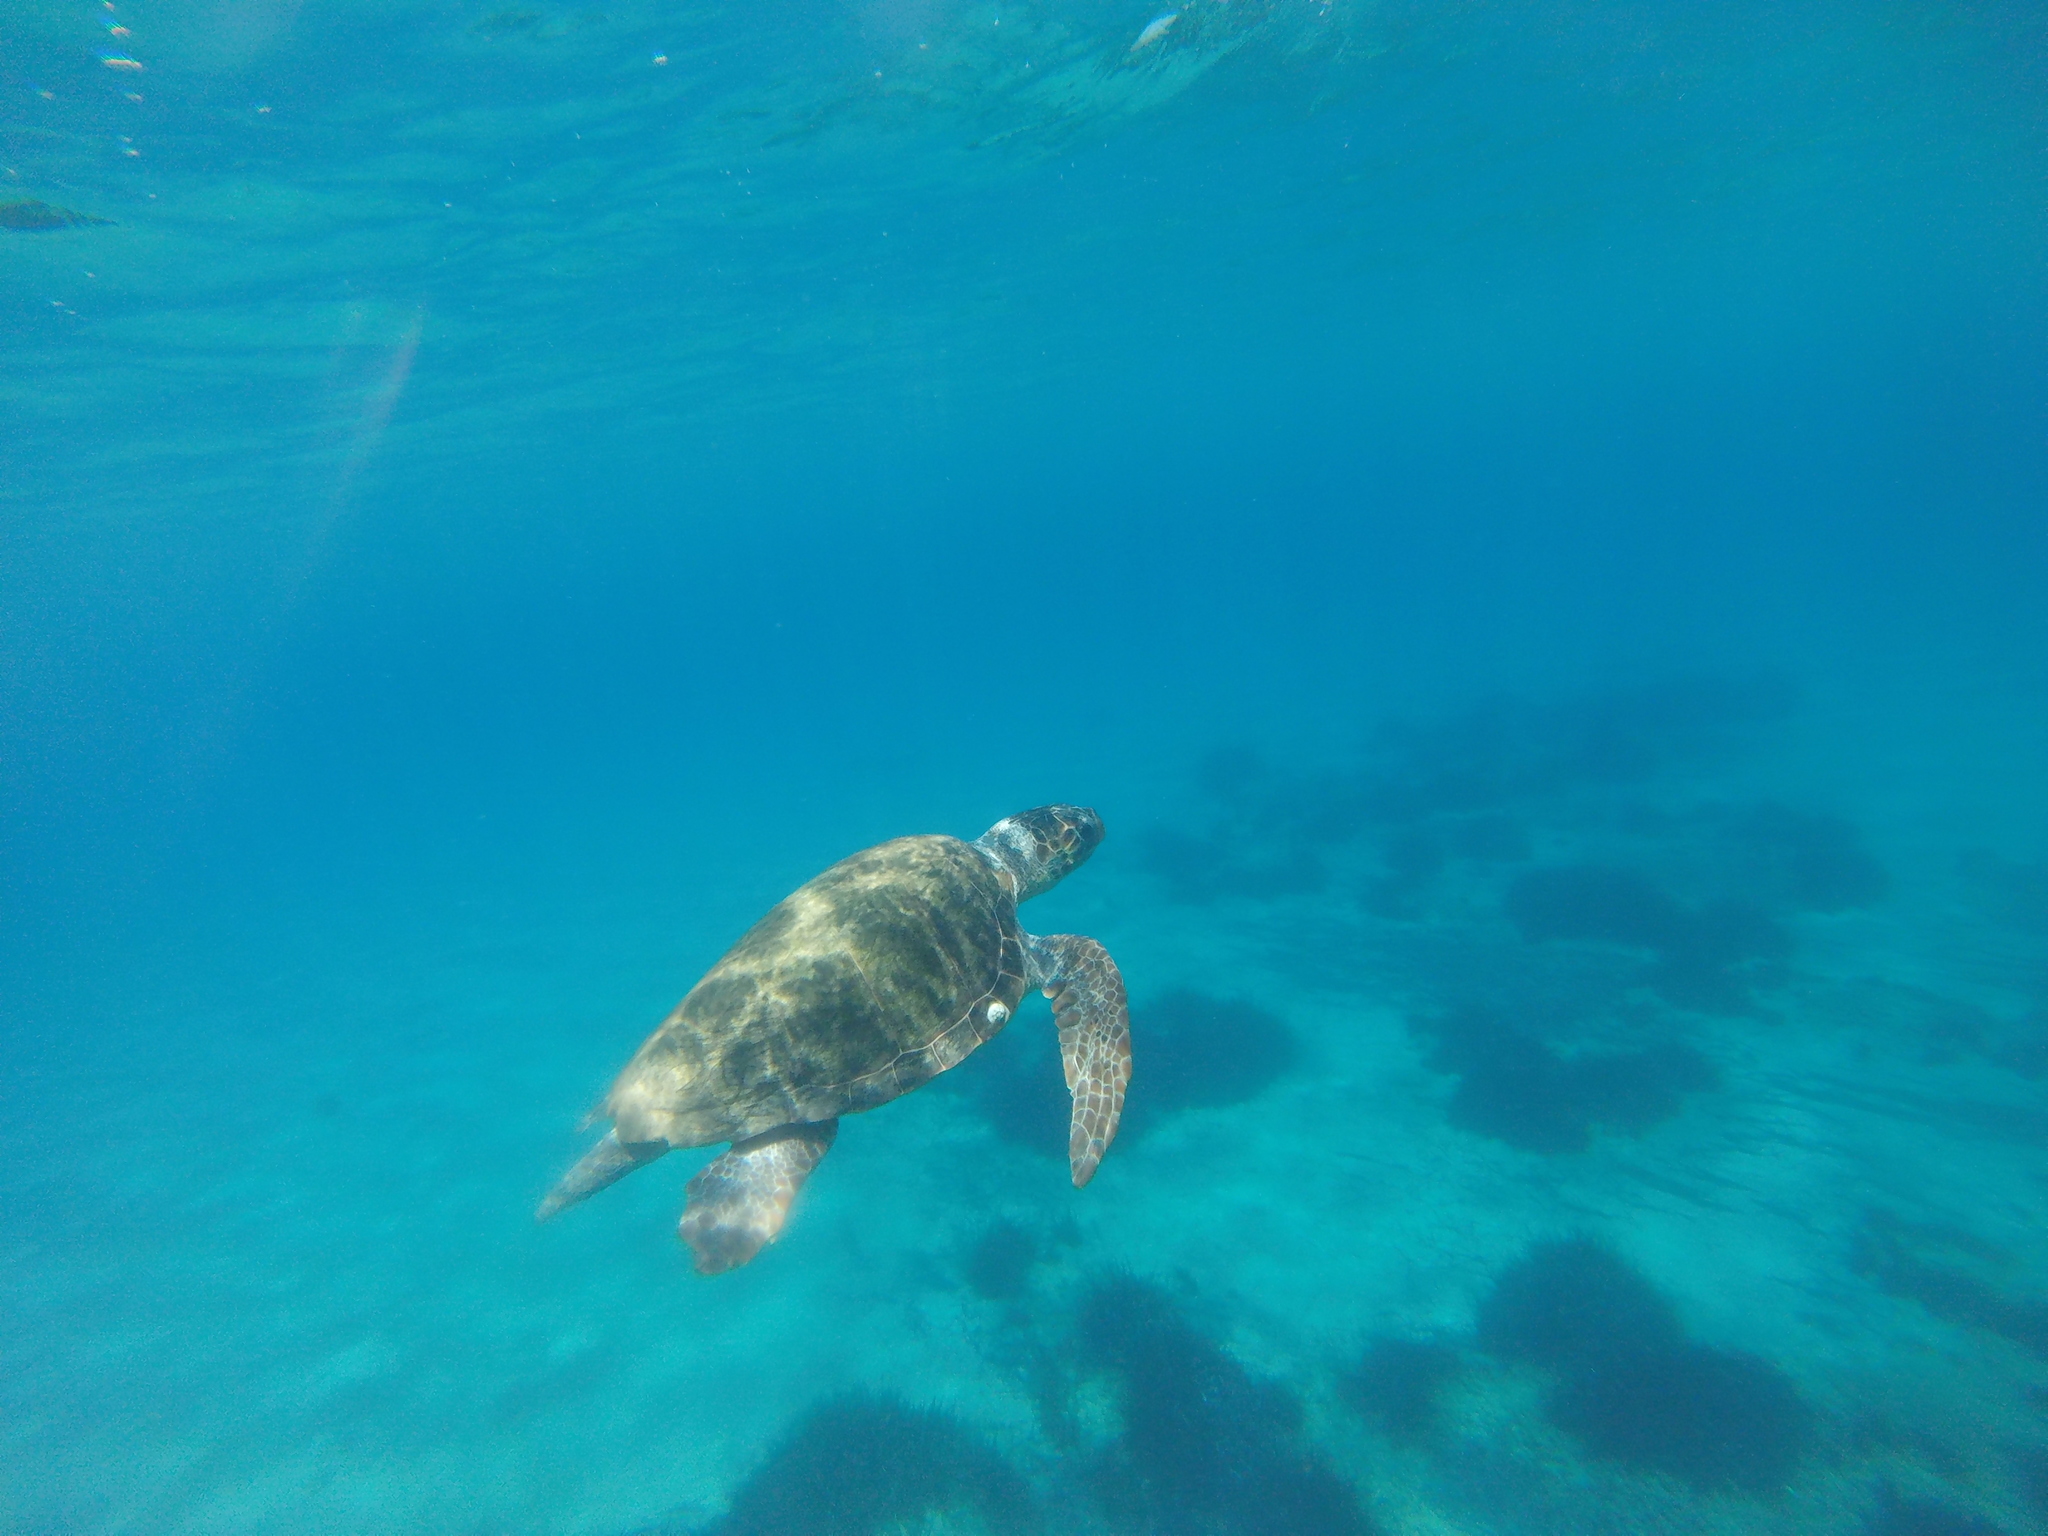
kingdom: Animalia
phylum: Chordata
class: Testudines
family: Cheloniidae
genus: Caretta
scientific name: Caretta caretta
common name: Loggerhead sea turtle
